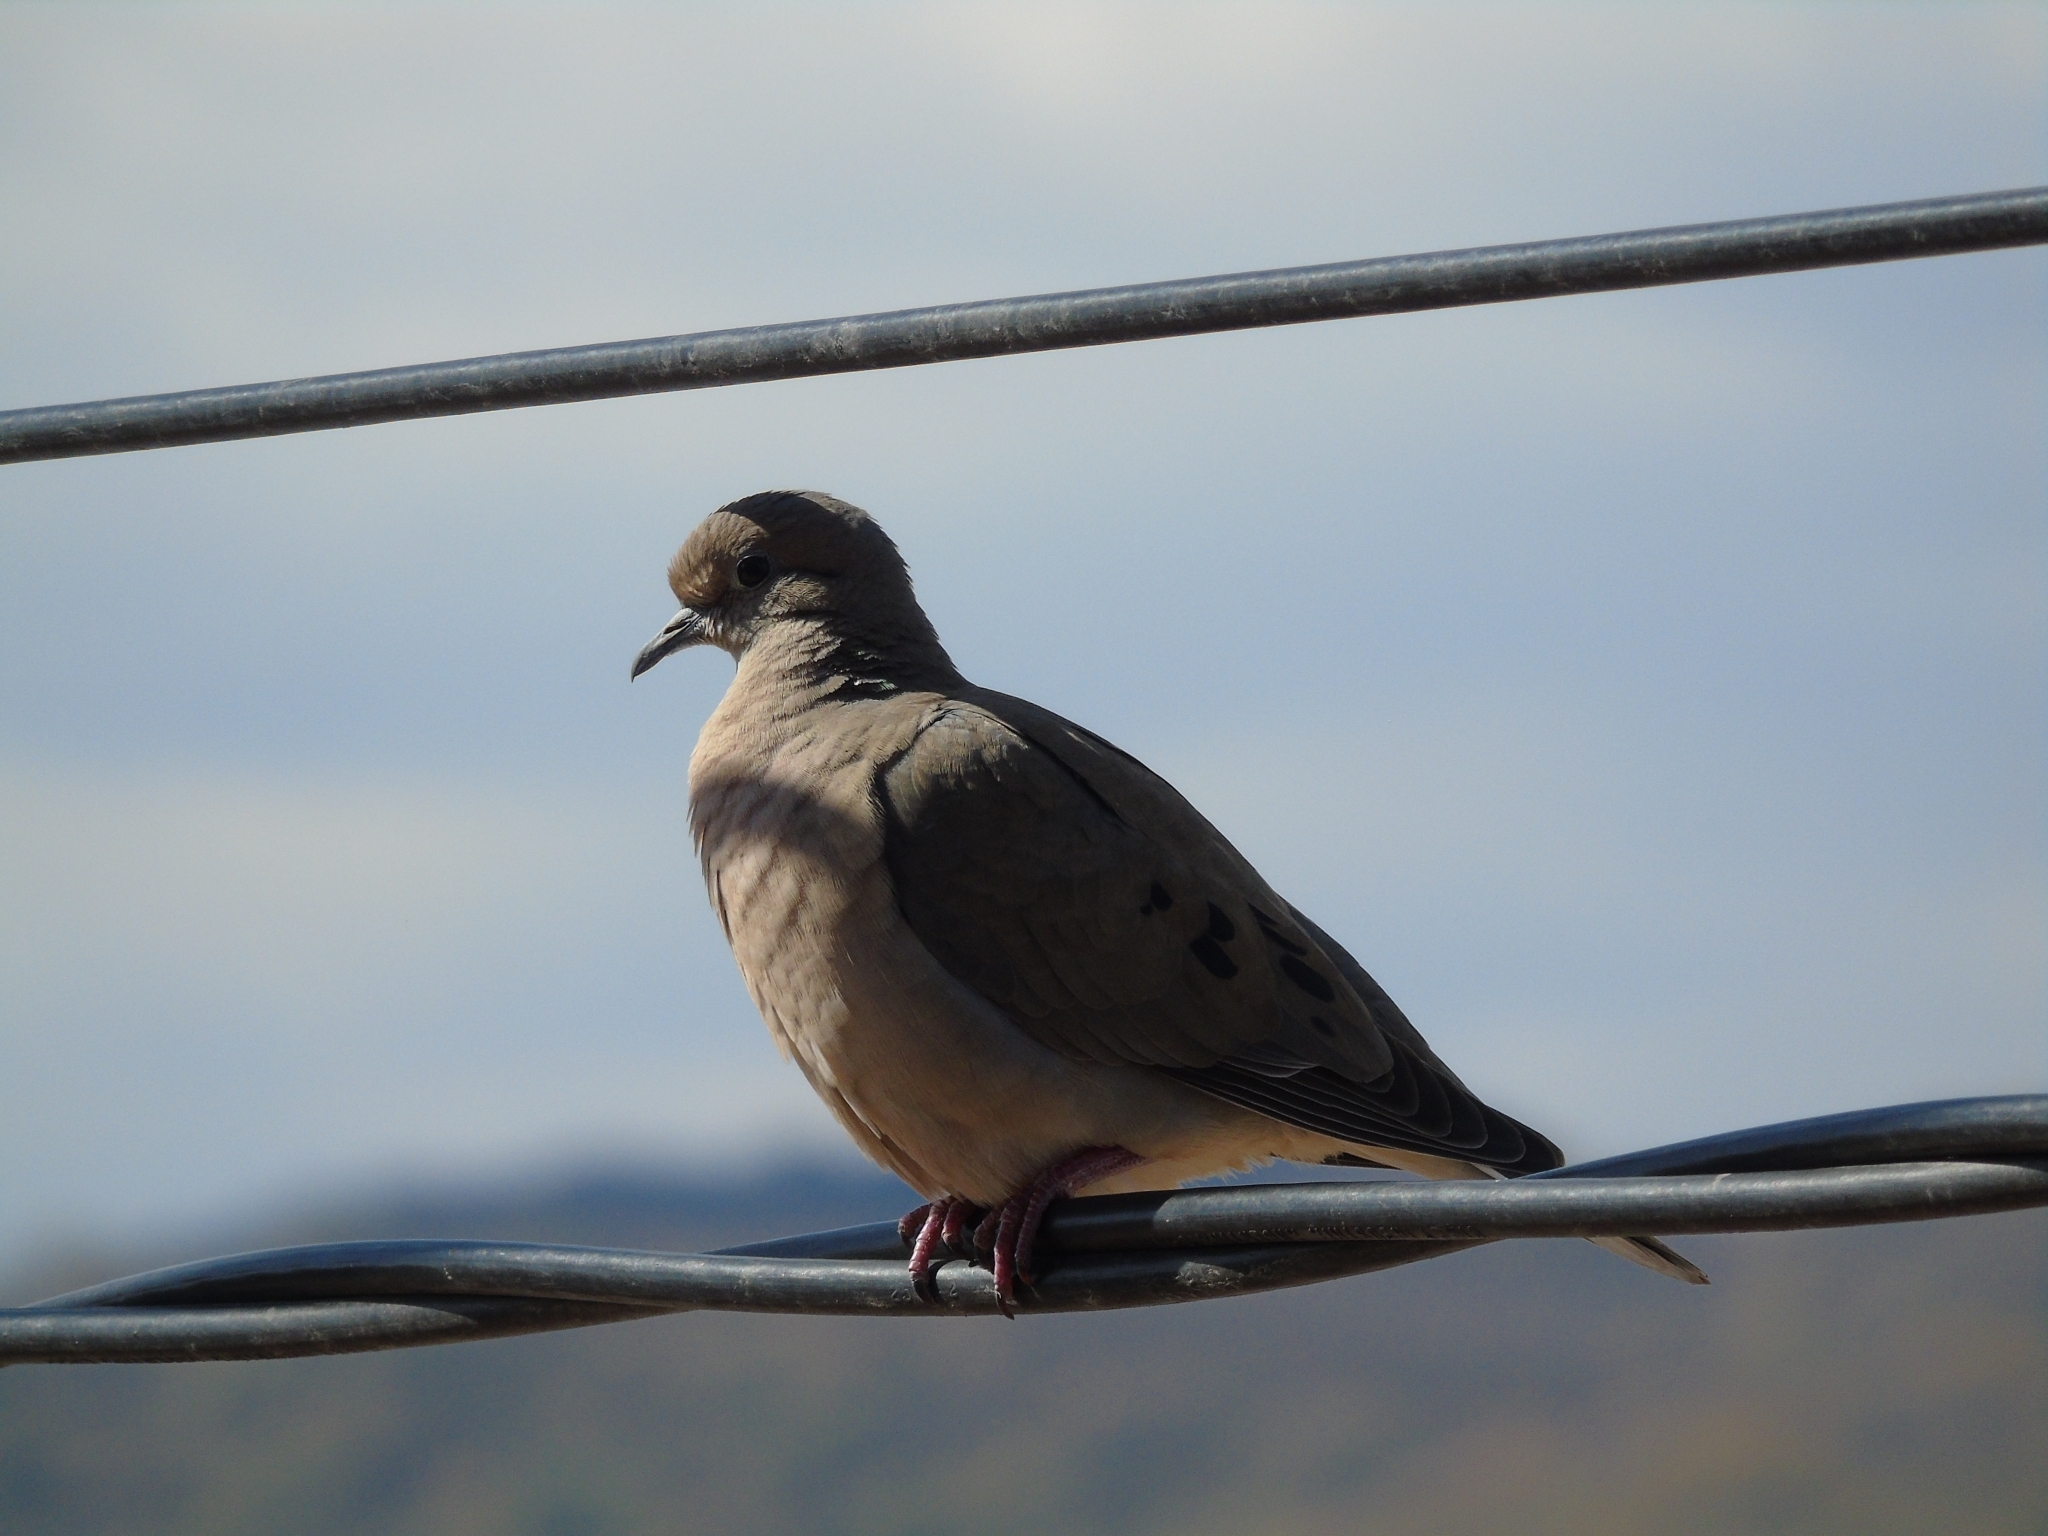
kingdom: Animalia
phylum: Chordata
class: Aves
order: Columbiformes
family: Columbidae
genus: Zenaida
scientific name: Zenaida auriculata
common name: Eared dove
